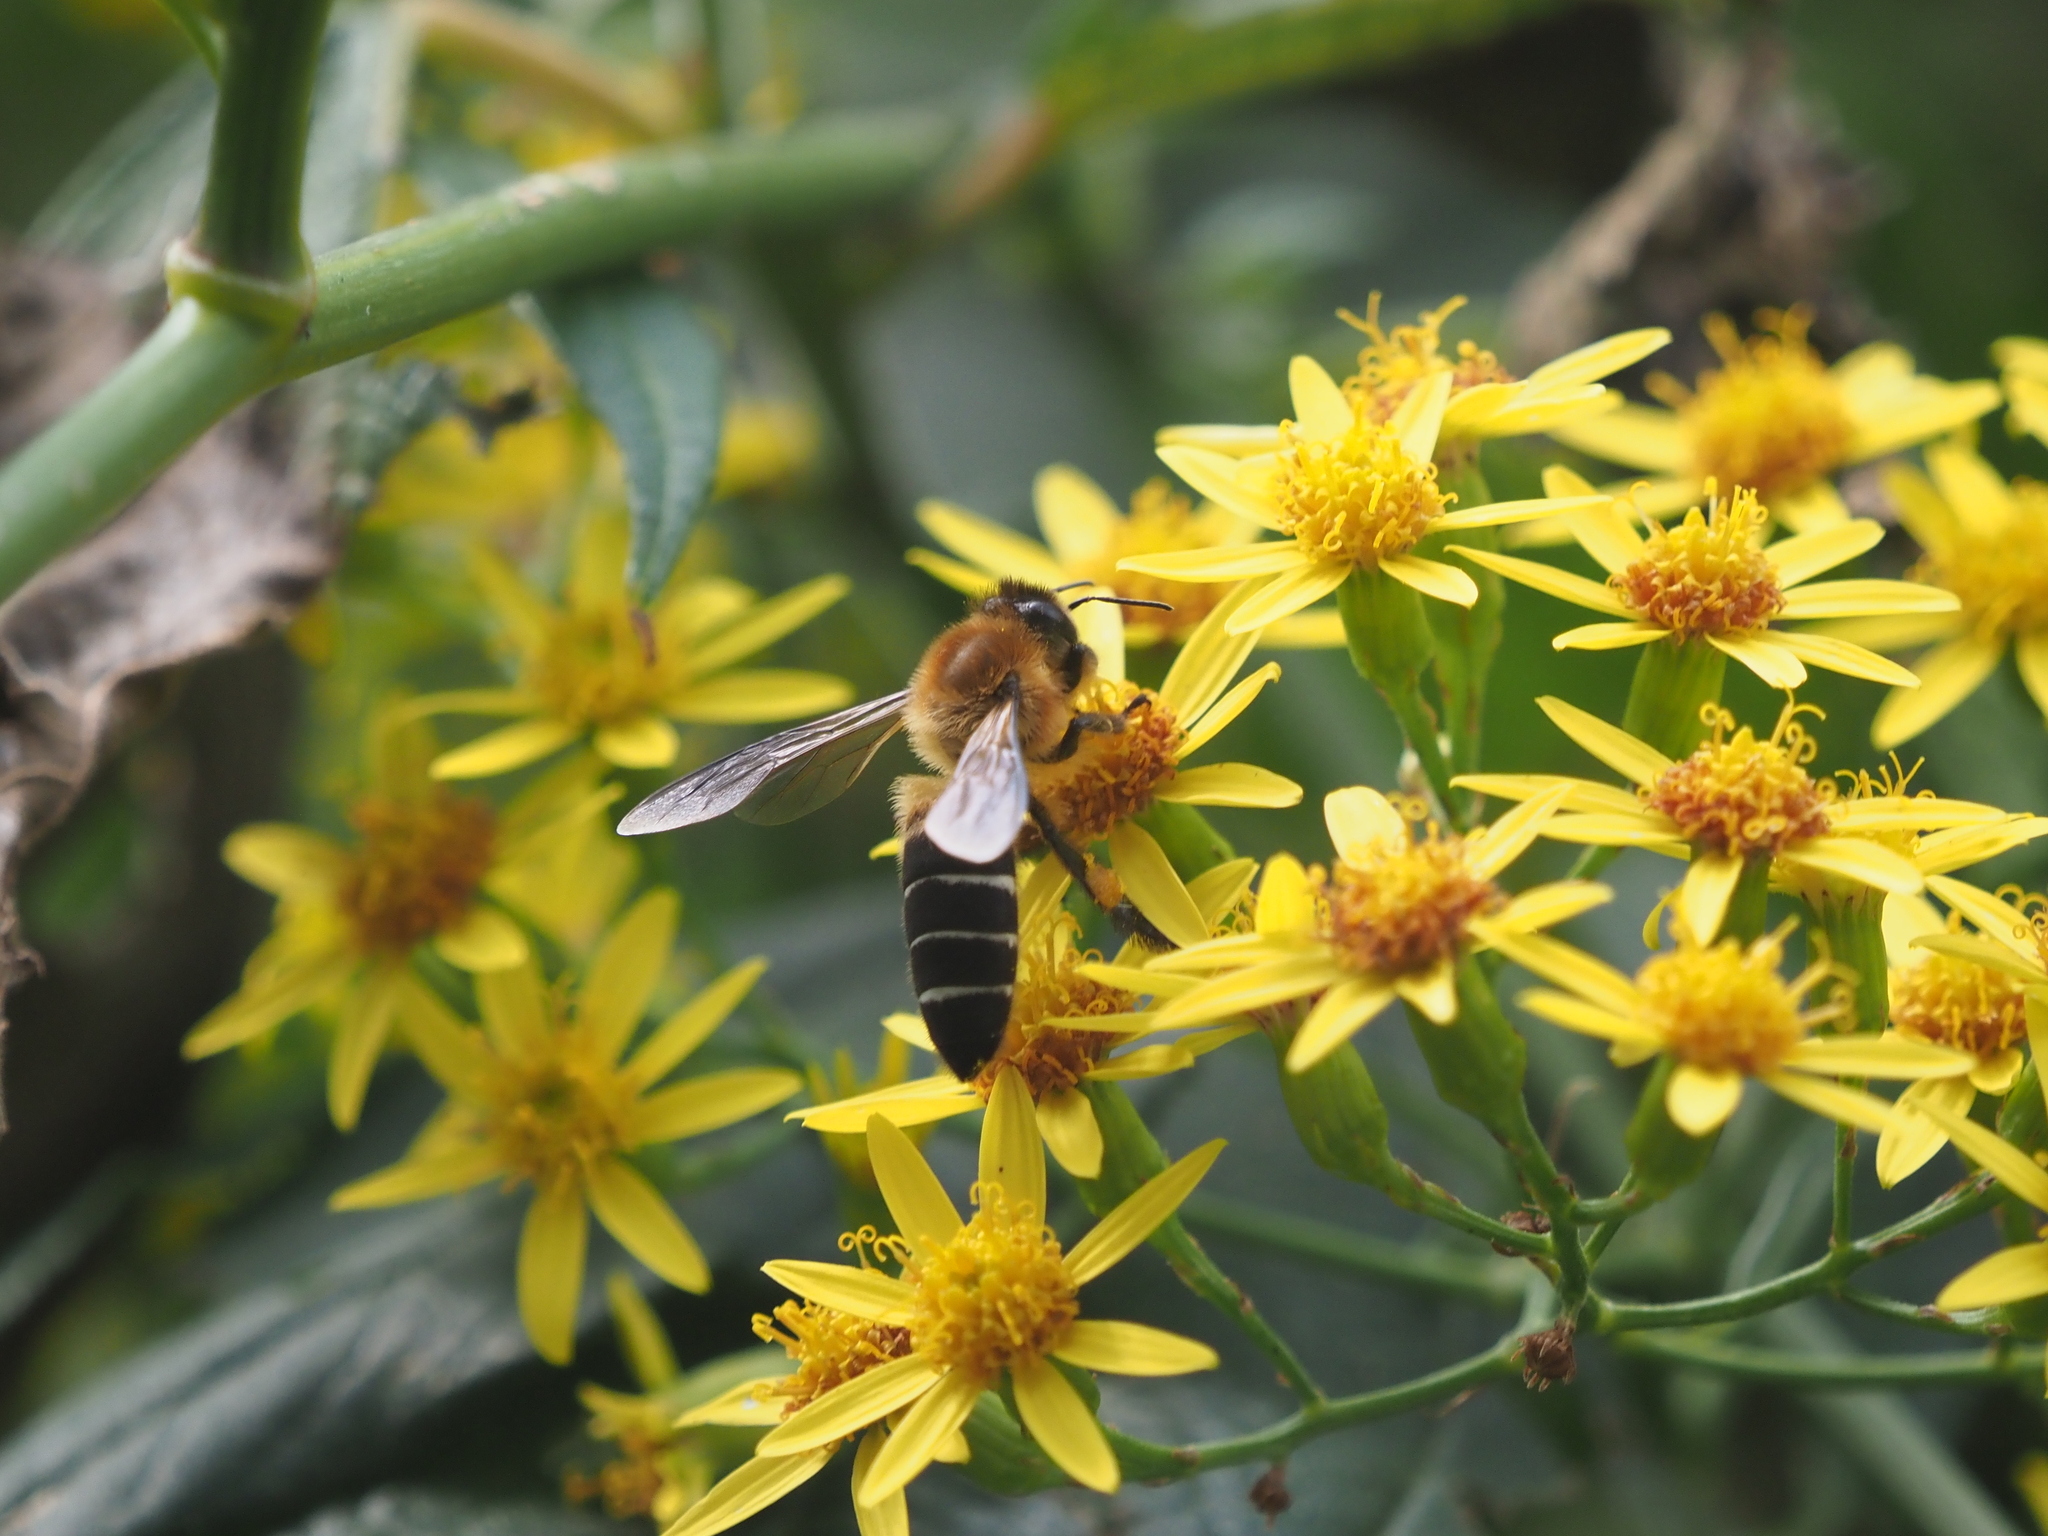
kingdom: Animalia
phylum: Arthropoda
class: Insecta
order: Hymenoptera
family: Apidae
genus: Apis
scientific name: Apis laboriosa
